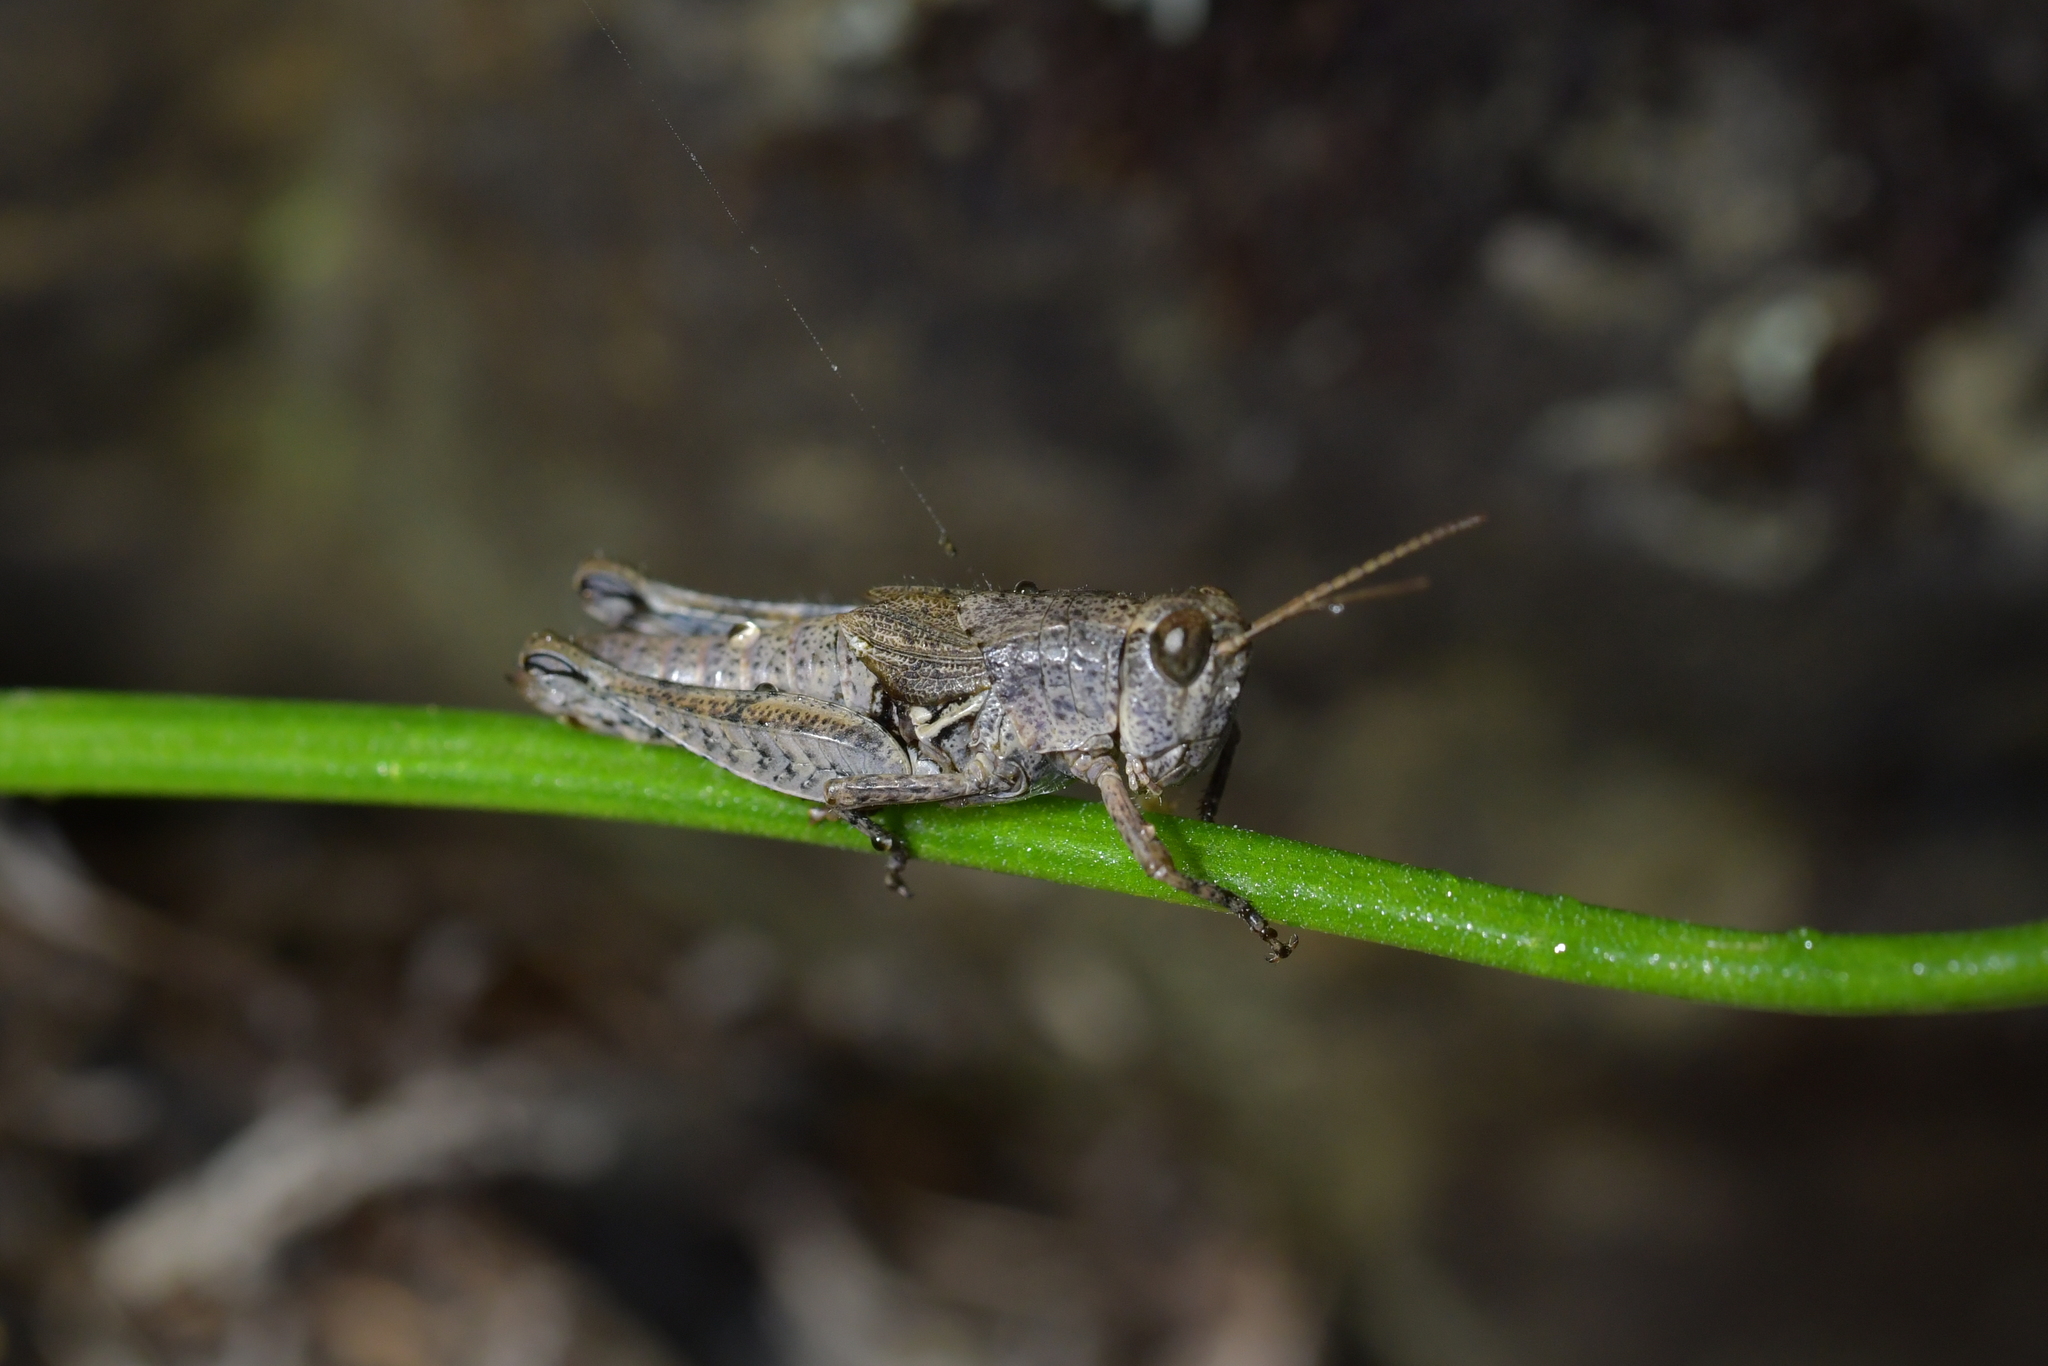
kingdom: Animalia
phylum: Arthropoda
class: Insecta
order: Orthoptera
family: Acrididae
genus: Phaulacridium
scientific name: Phaulacridium marginale
